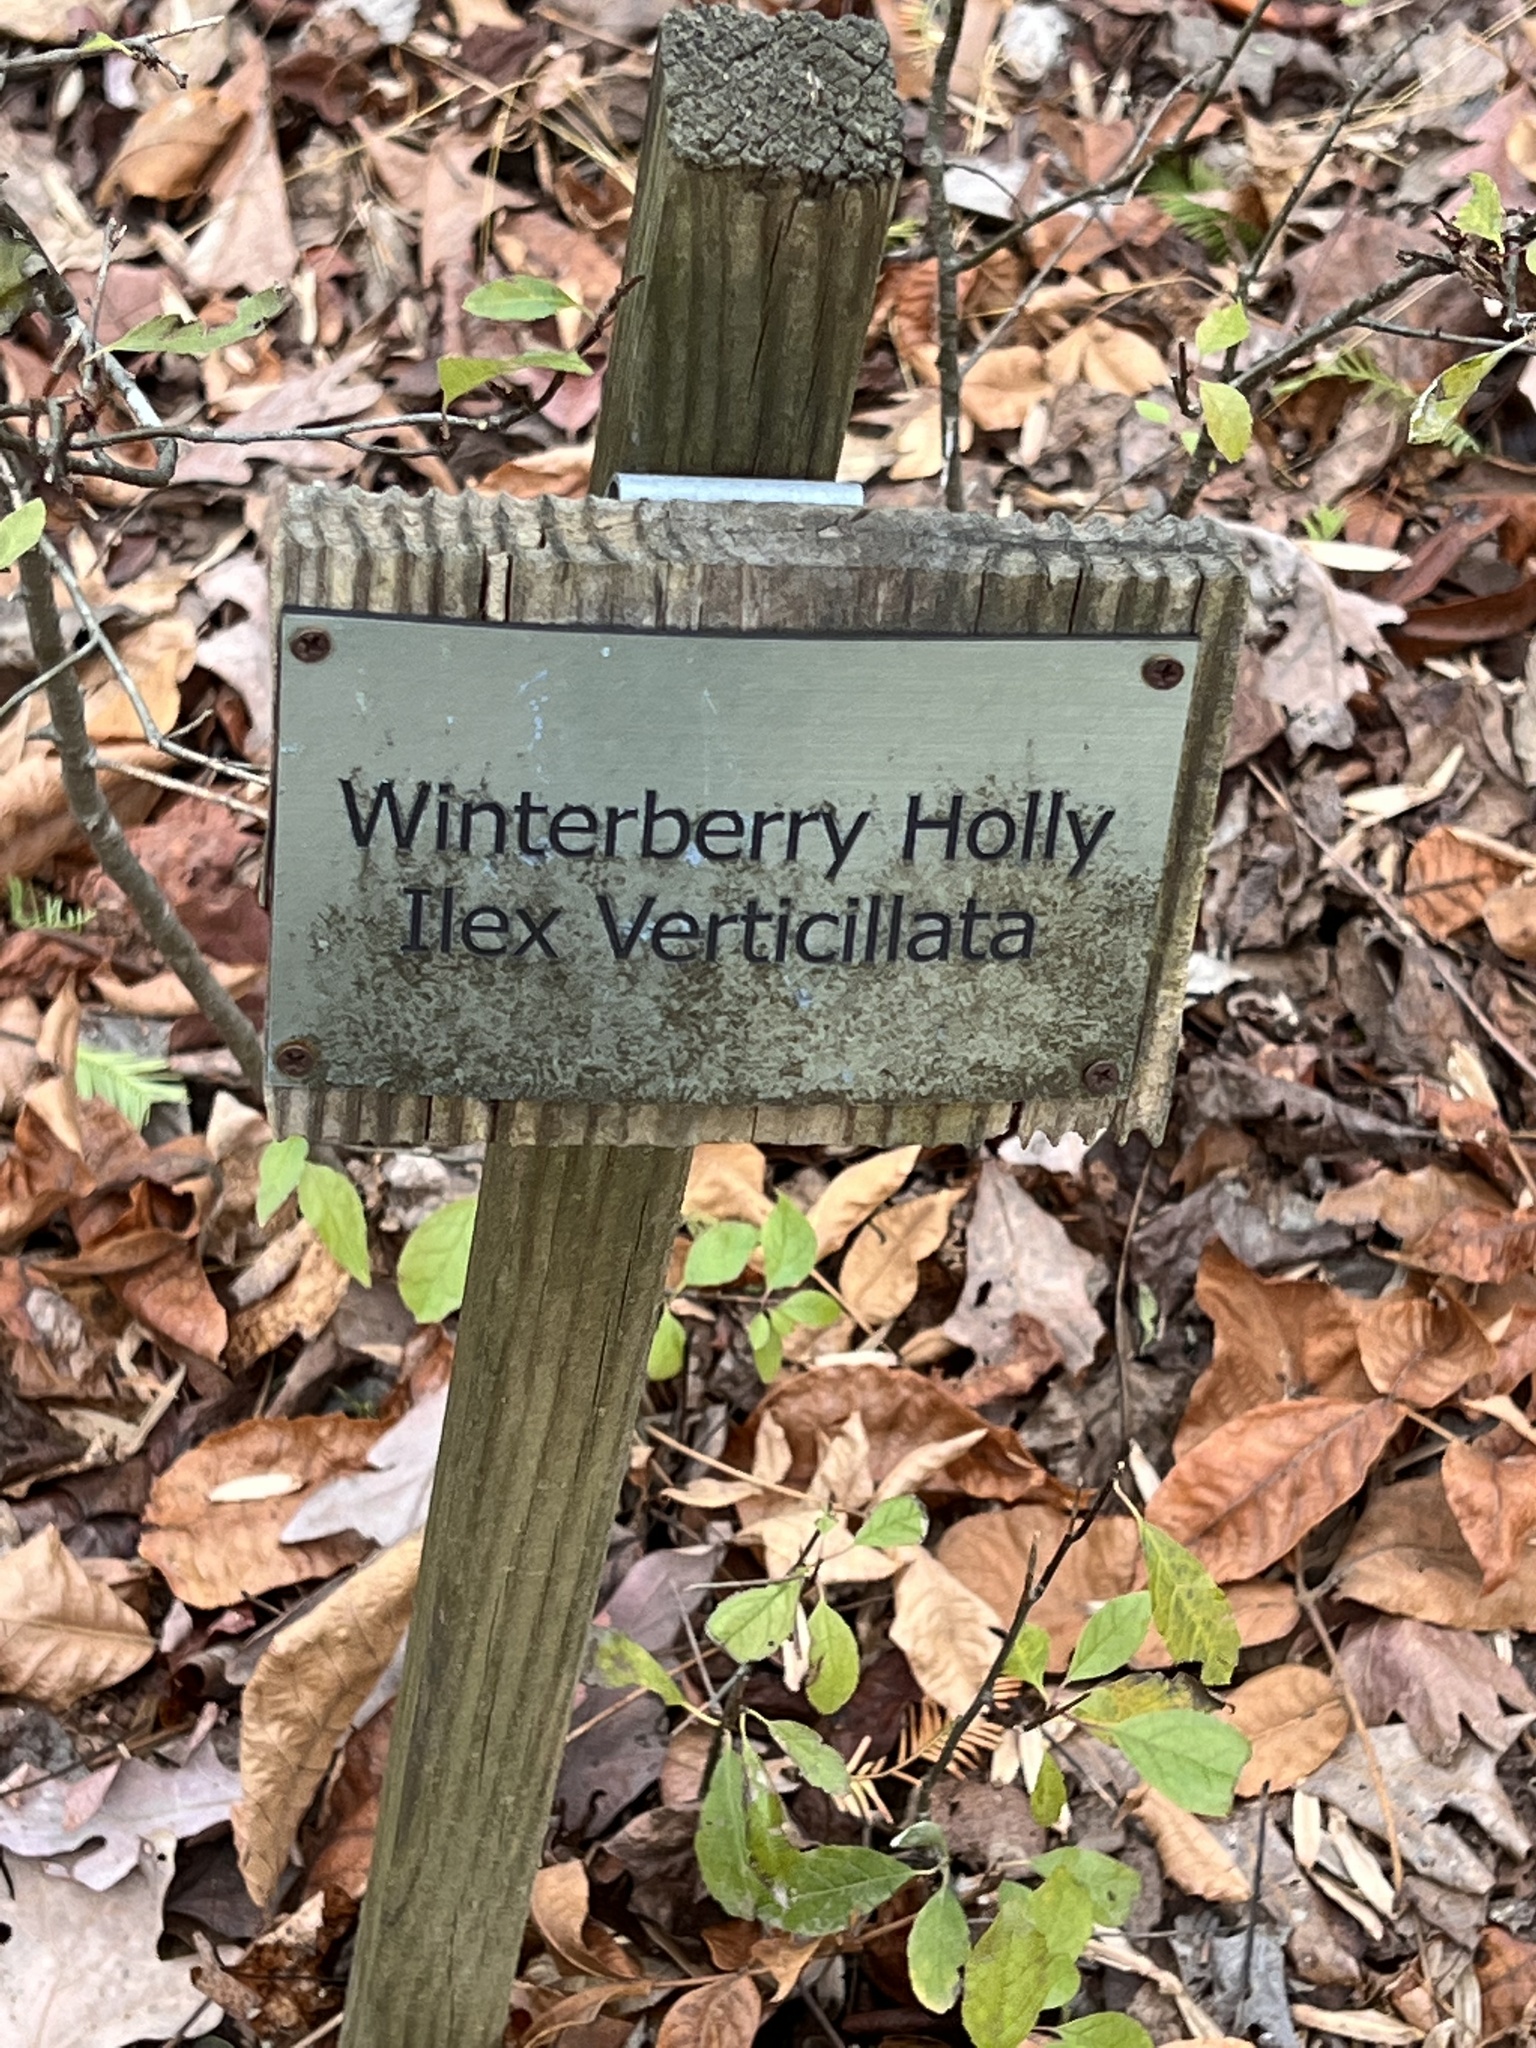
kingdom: Plantae
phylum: Tracheophyta
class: Magnoliopsida
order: Aquifoliales
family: Aquifoliaceae
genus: Ilex
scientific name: Ilex verticillata
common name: Virginia winterberry
